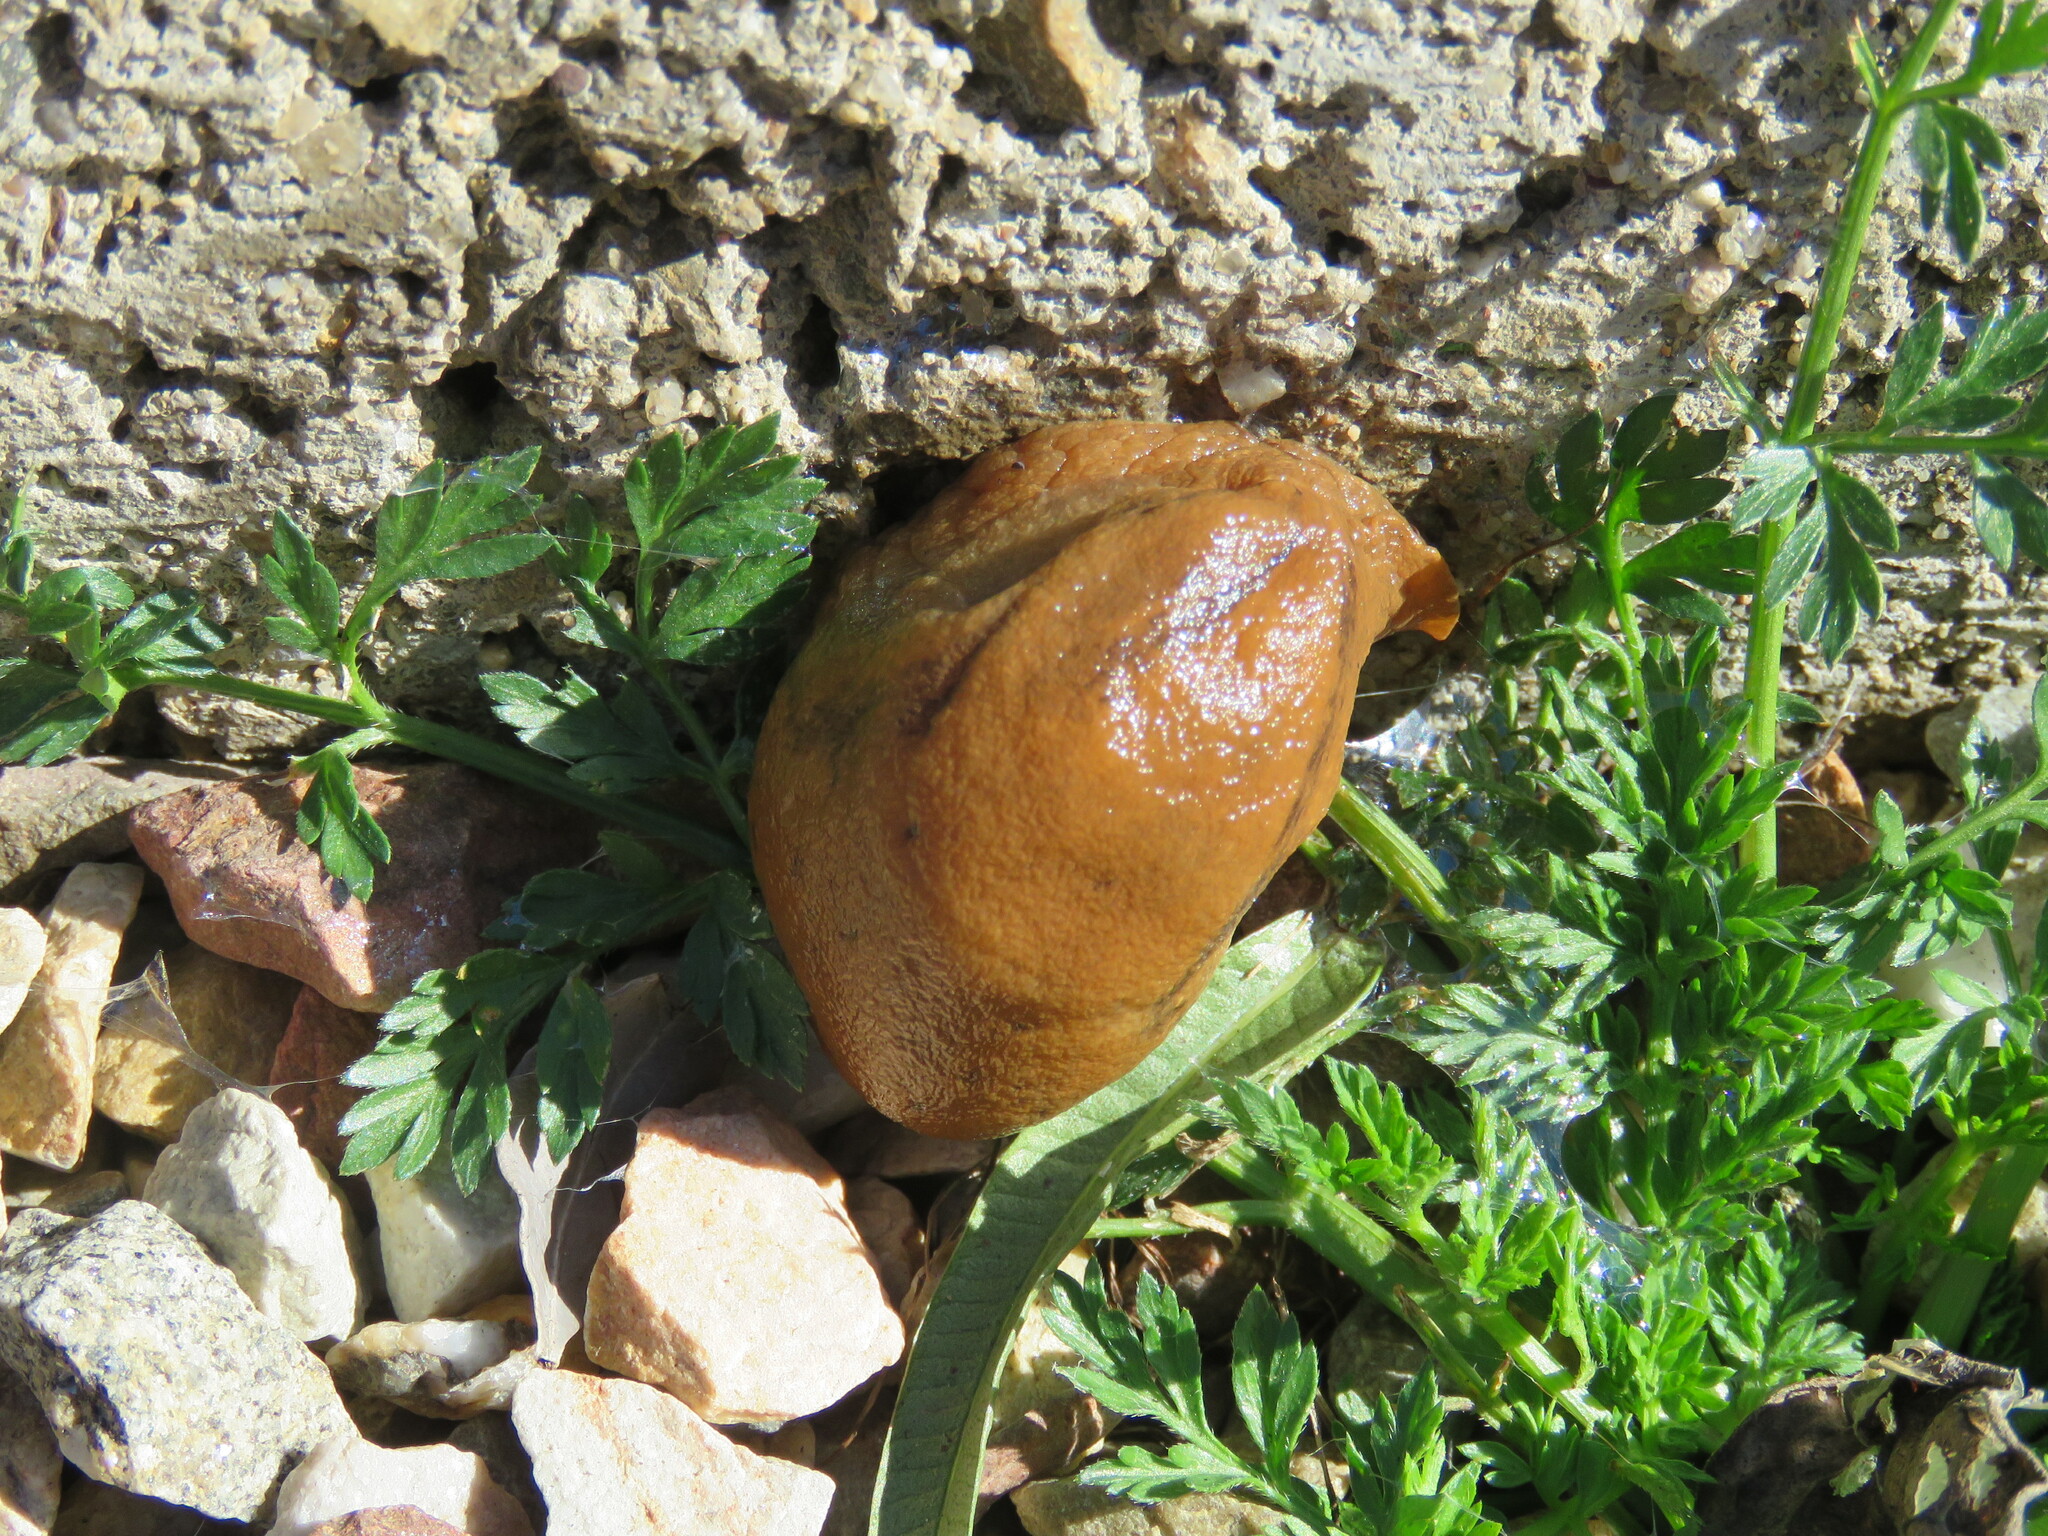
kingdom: Animalia
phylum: Mollusca
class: Gastropoda
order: Stylommatophora
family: Parmacellidae
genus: Drusia
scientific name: Drusia valenciennii
